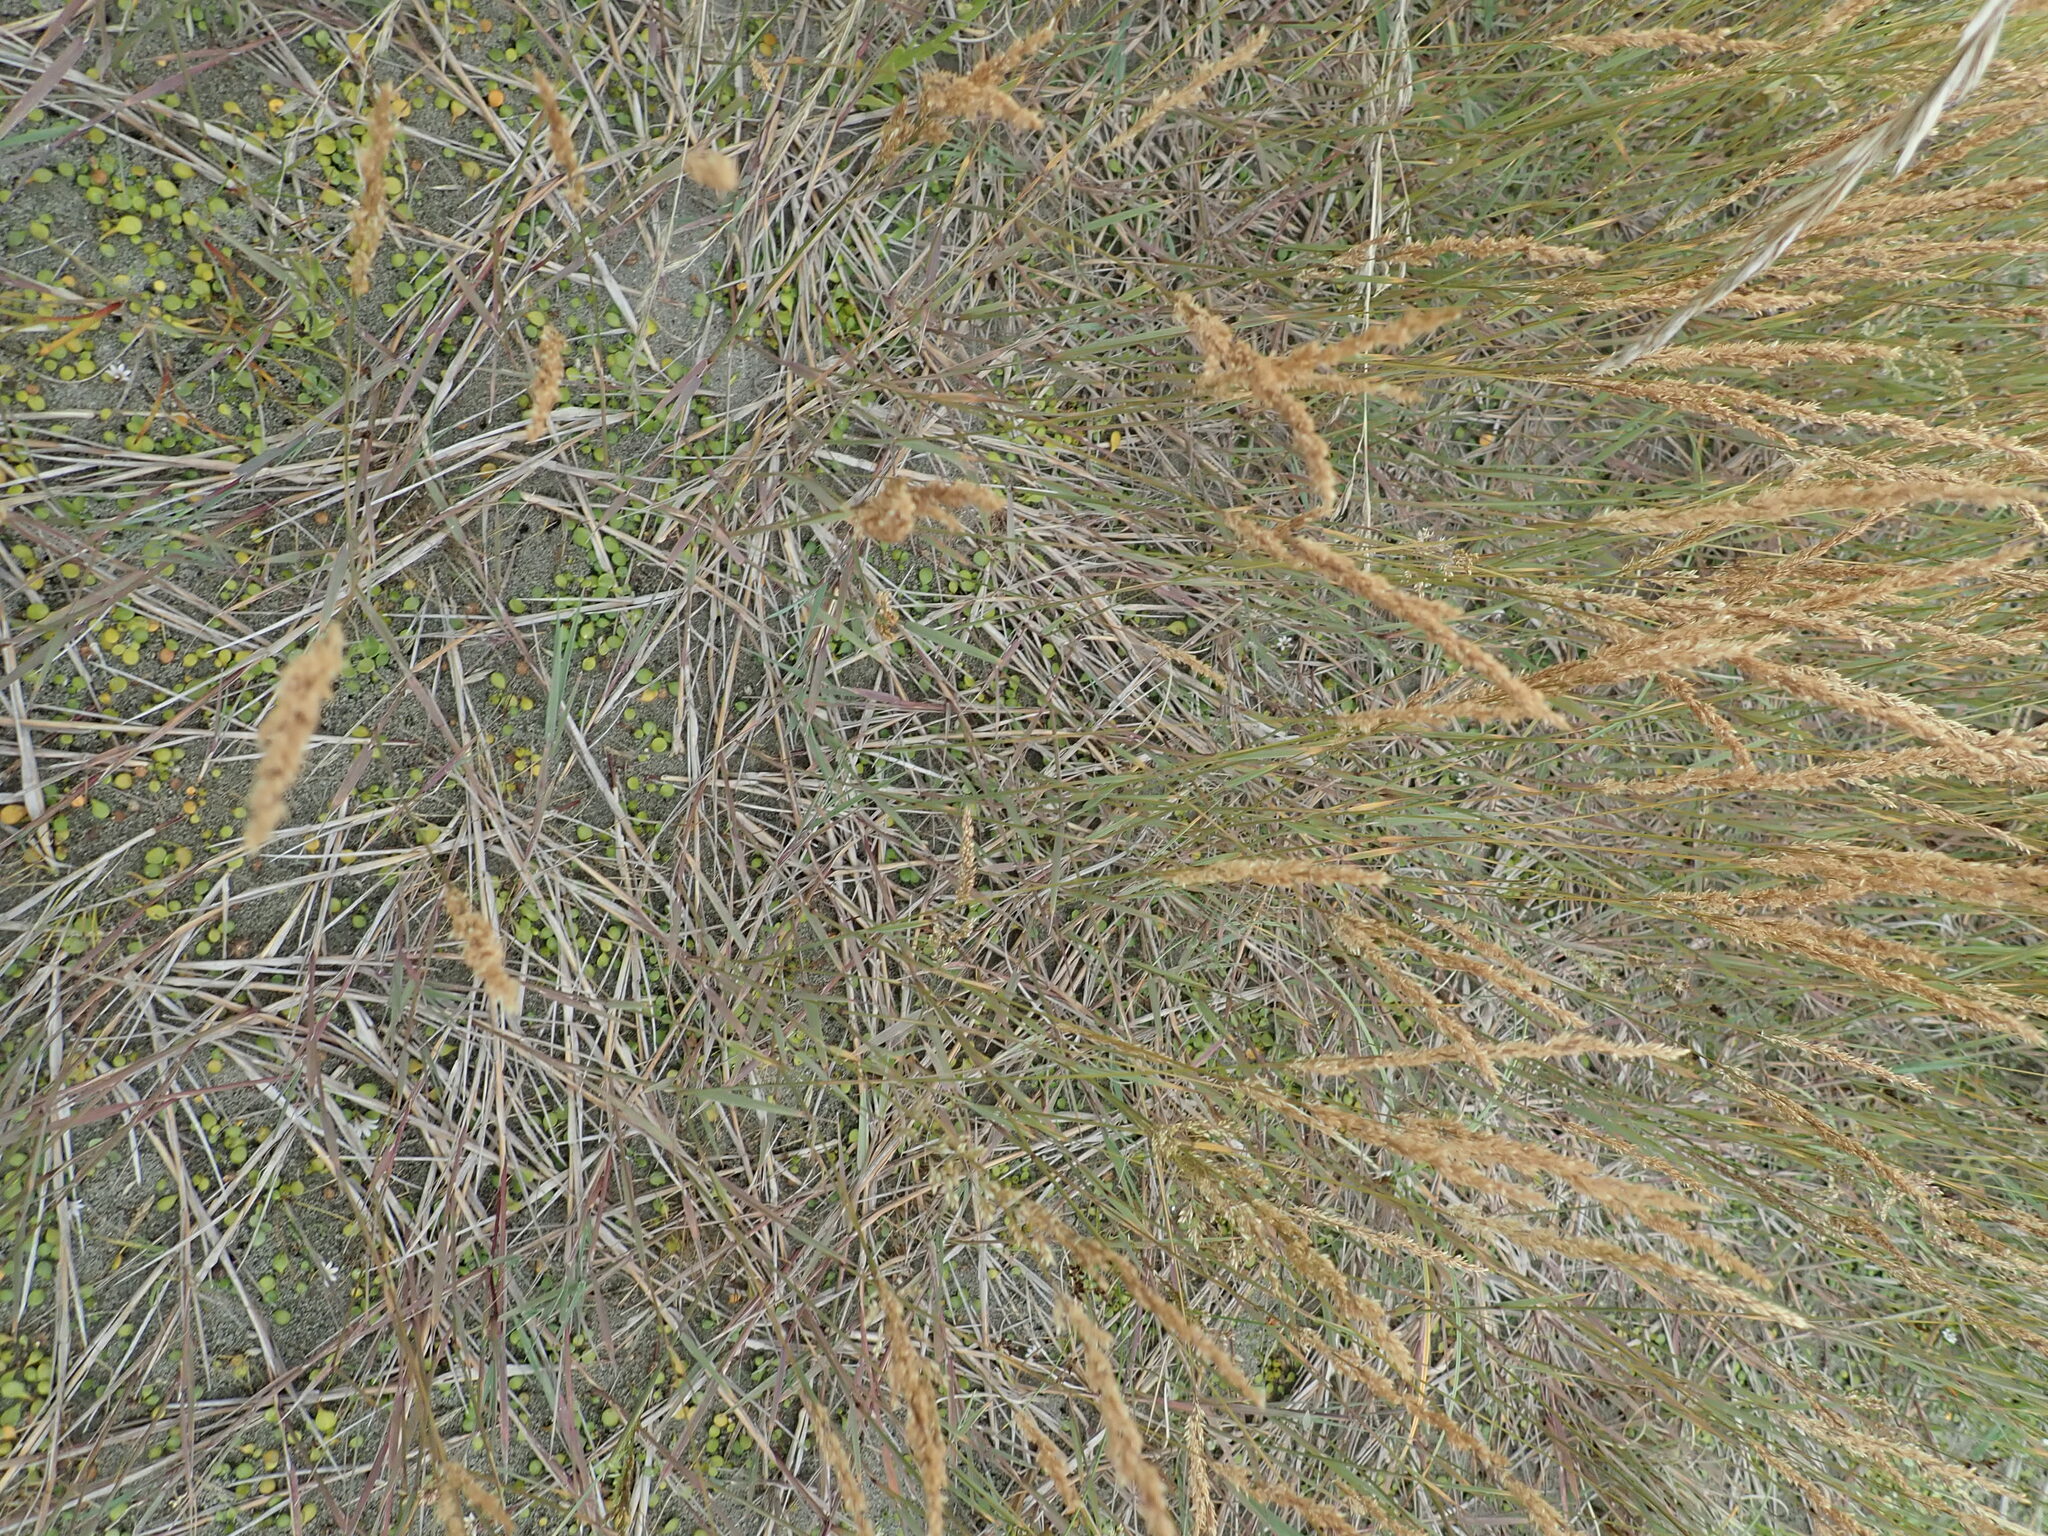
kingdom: Plantae
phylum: Tracheophyta
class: Liliopsida
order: Poales
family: Poaceae
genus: Agrostis
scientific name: Agrostis stolonifera
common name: Creeping bentgrass
